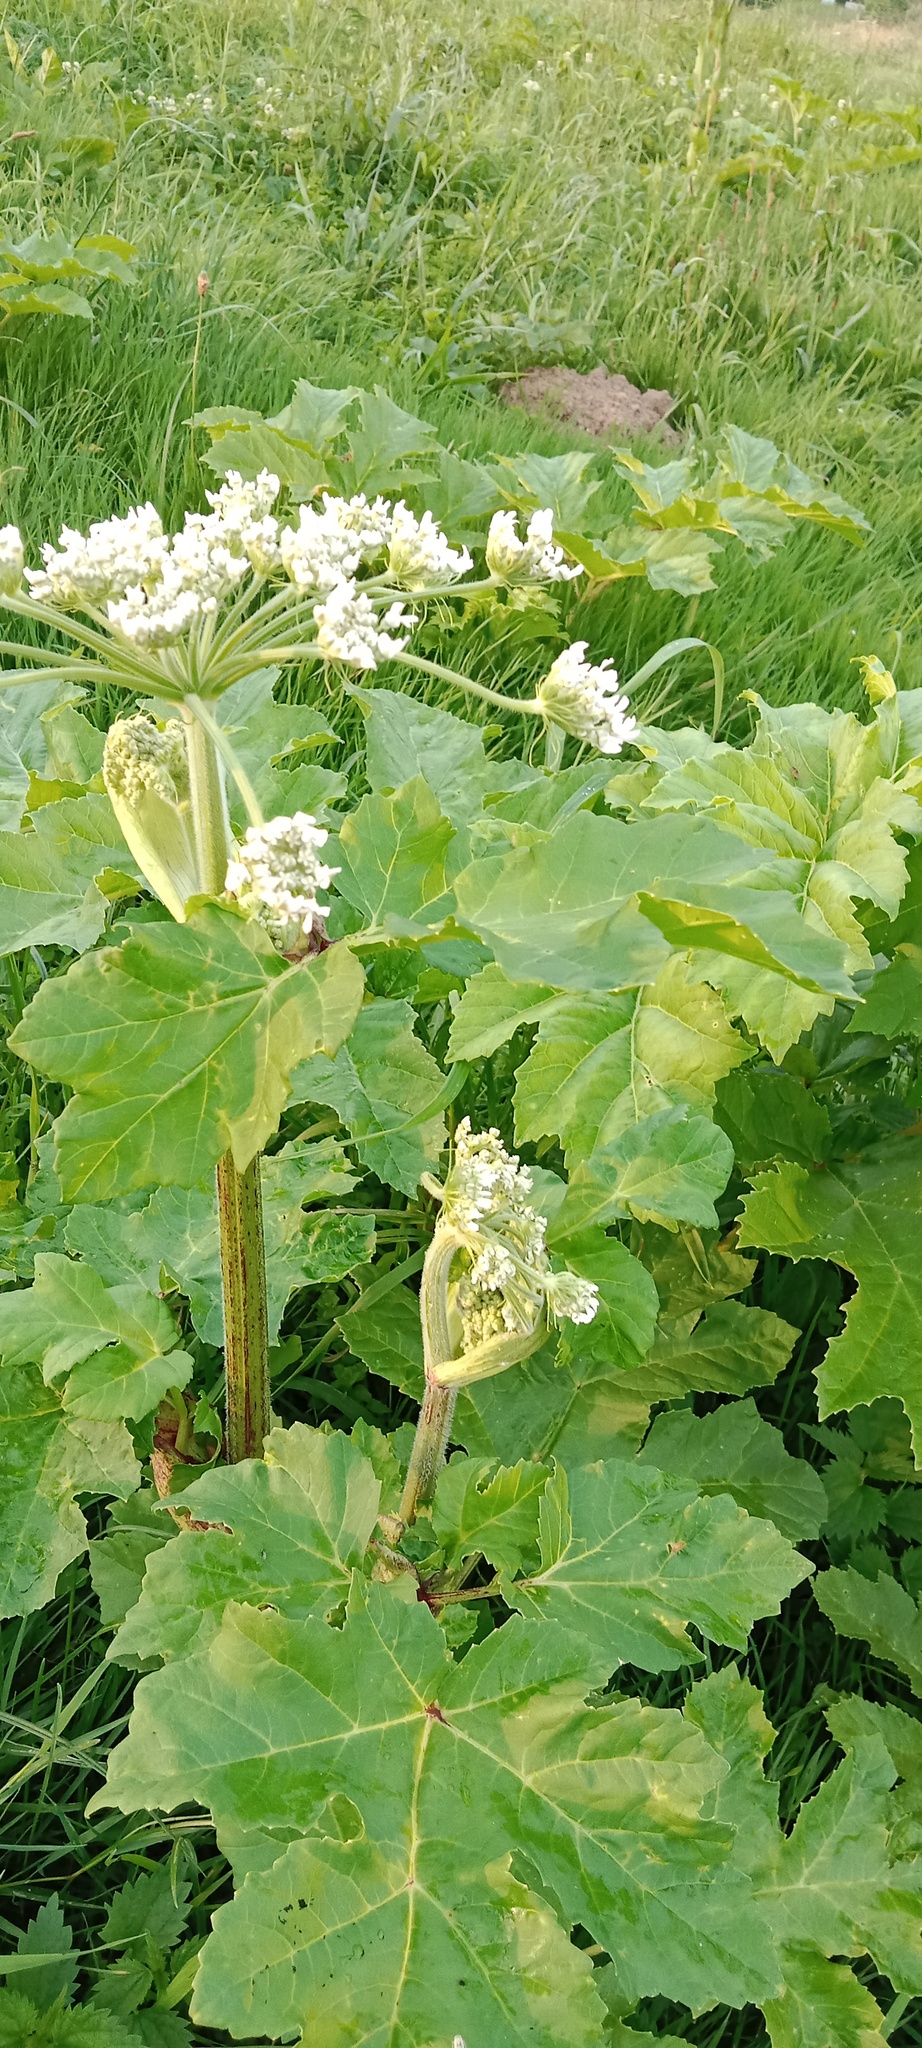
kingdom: Plantae
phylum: Tracheophyta
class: Magnoliopsida
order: Apiales
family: Apiaceae
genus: Heracleum
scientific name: Heracleum sosnowskyi
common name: Sosnowsky's hogweed
